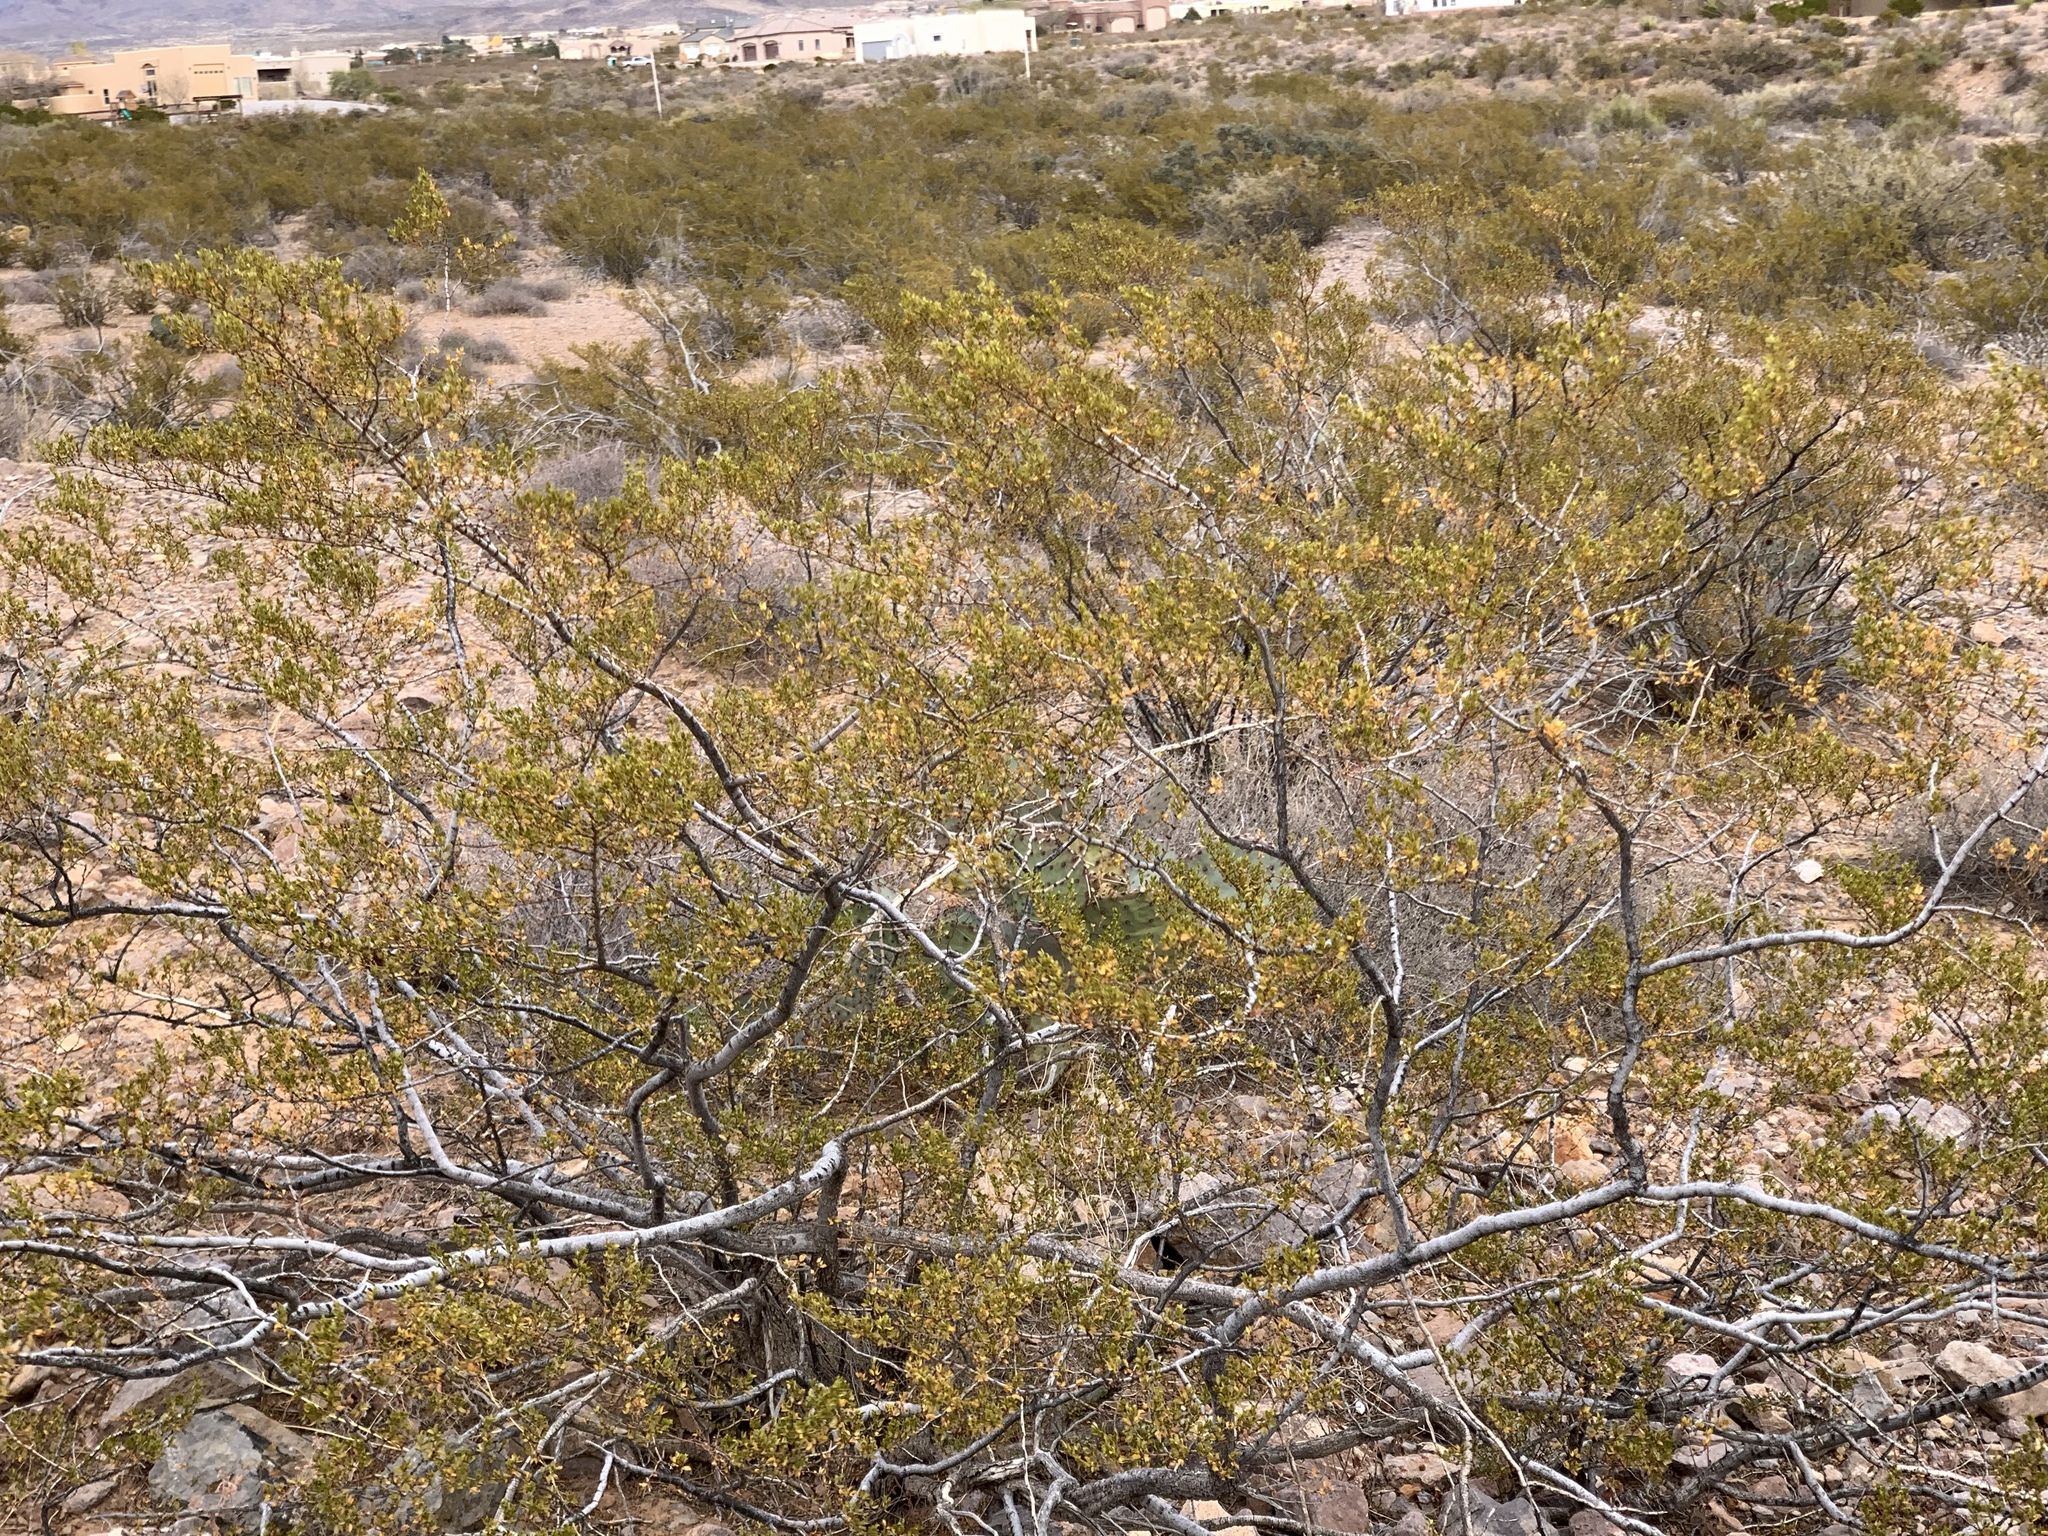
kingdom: Plantae
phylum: Tracheophyta
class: Magnoliopsida
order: Zygophyllales
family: Zygophyllaceae
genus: Larrea
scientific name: Larrea tridentata
